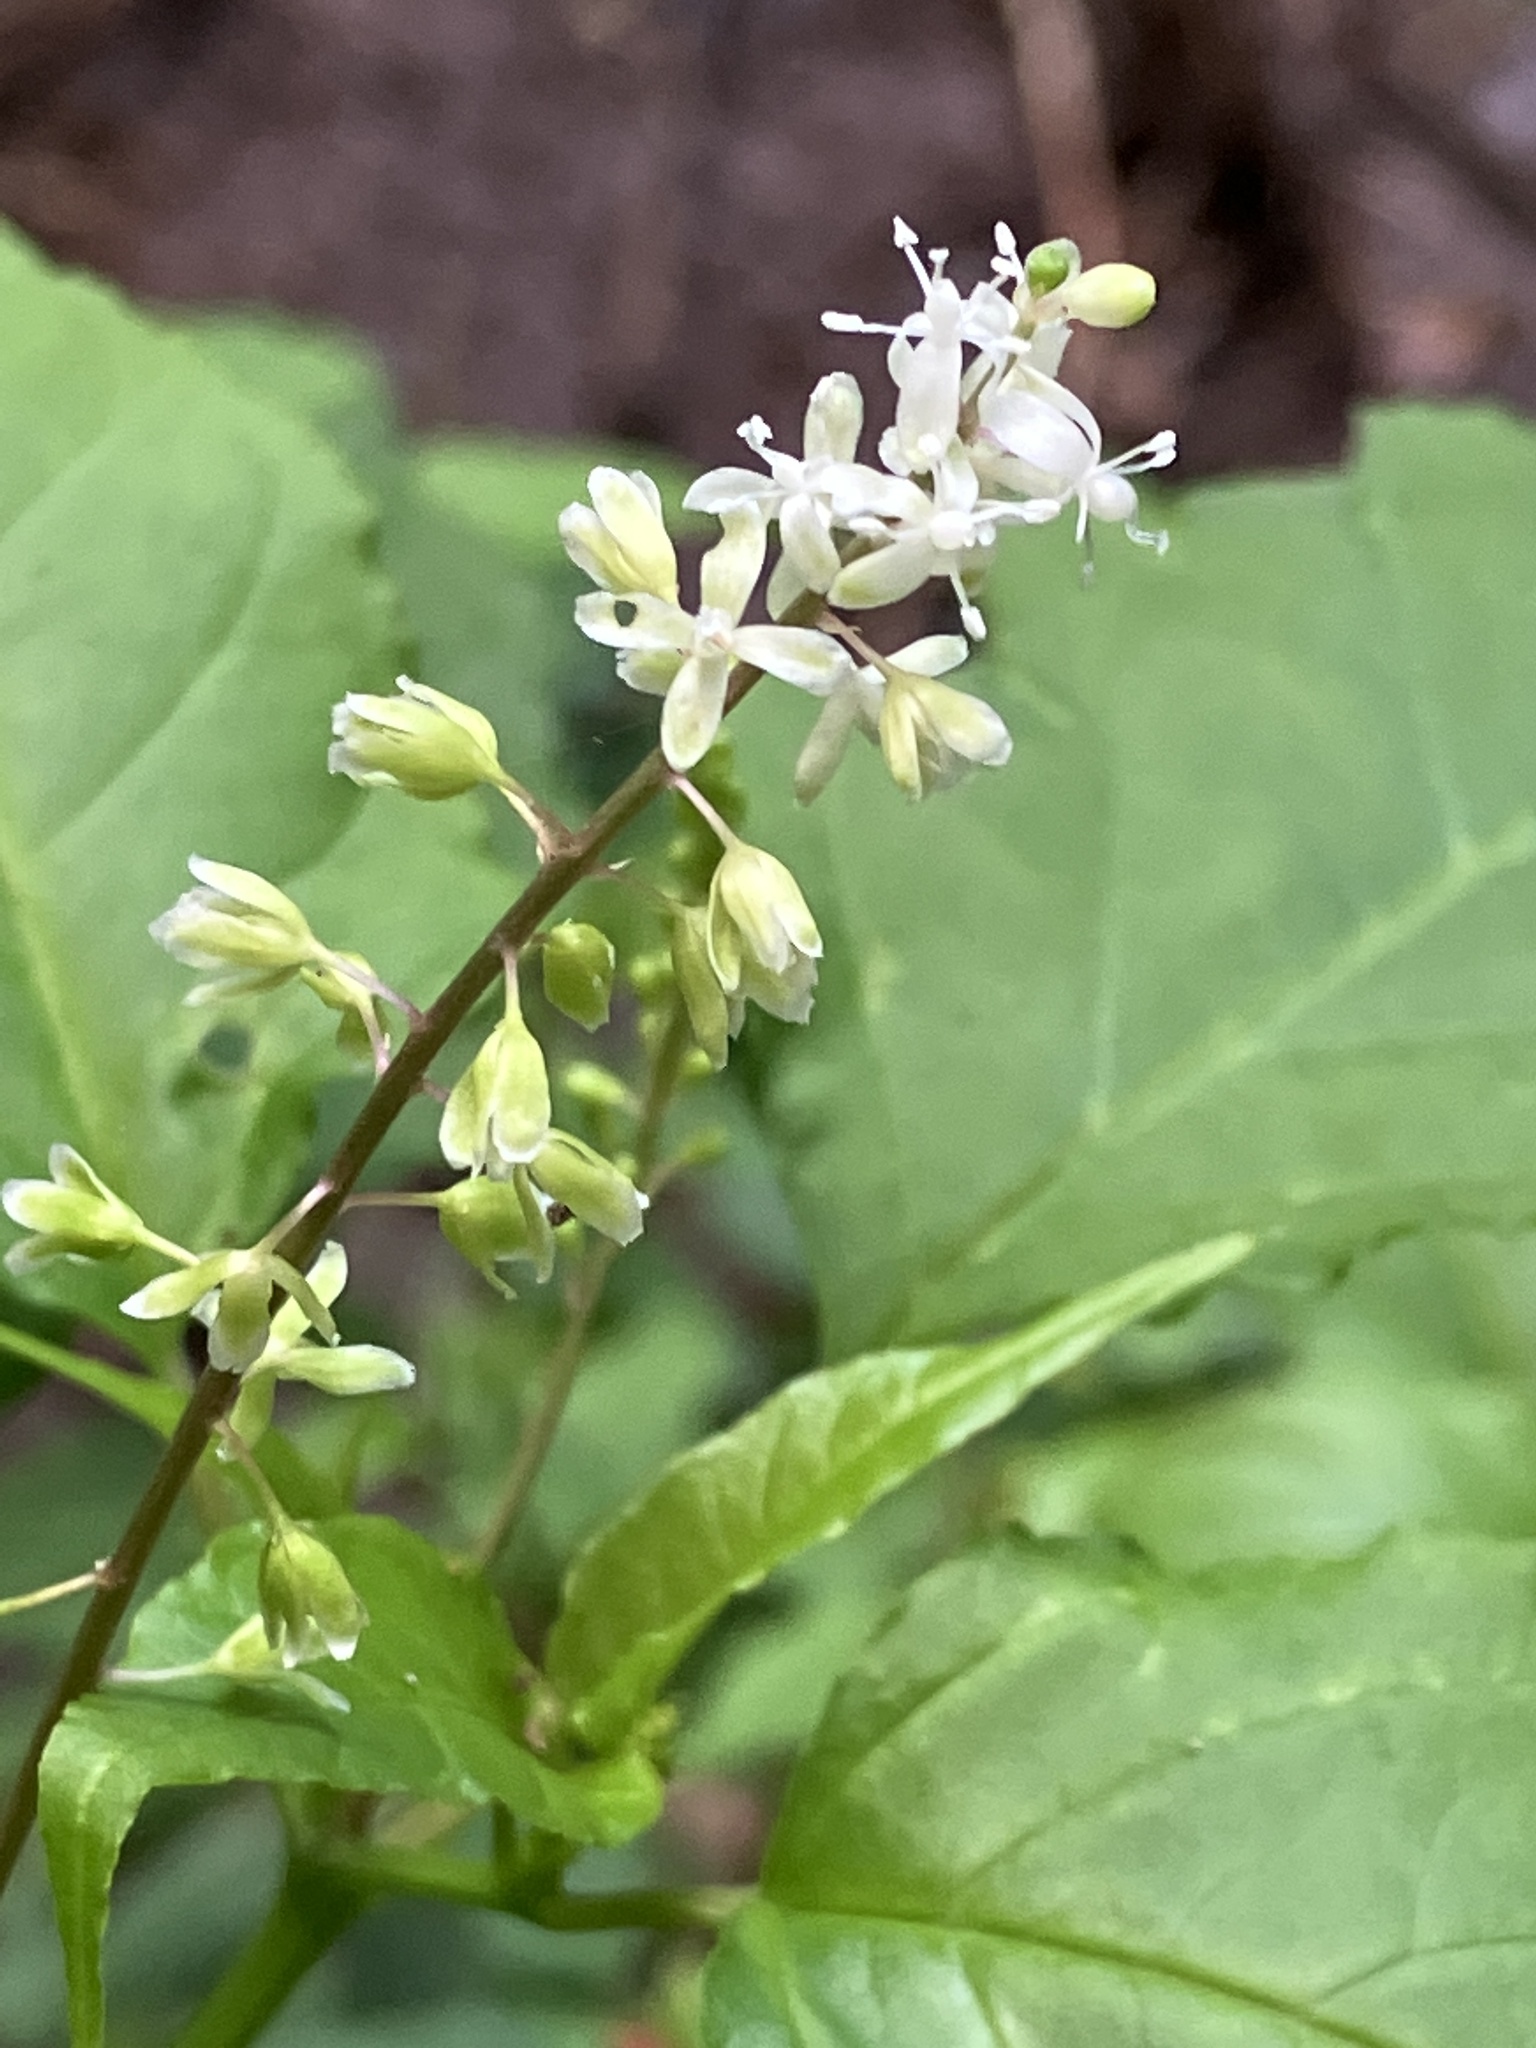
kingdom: Plantae
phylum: Tracheophyta
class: Magnoliopsida
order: Caryophyllales
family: Phytolaccaceae
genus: Rivina
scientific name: Rivina humilis
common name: Rougeplant
